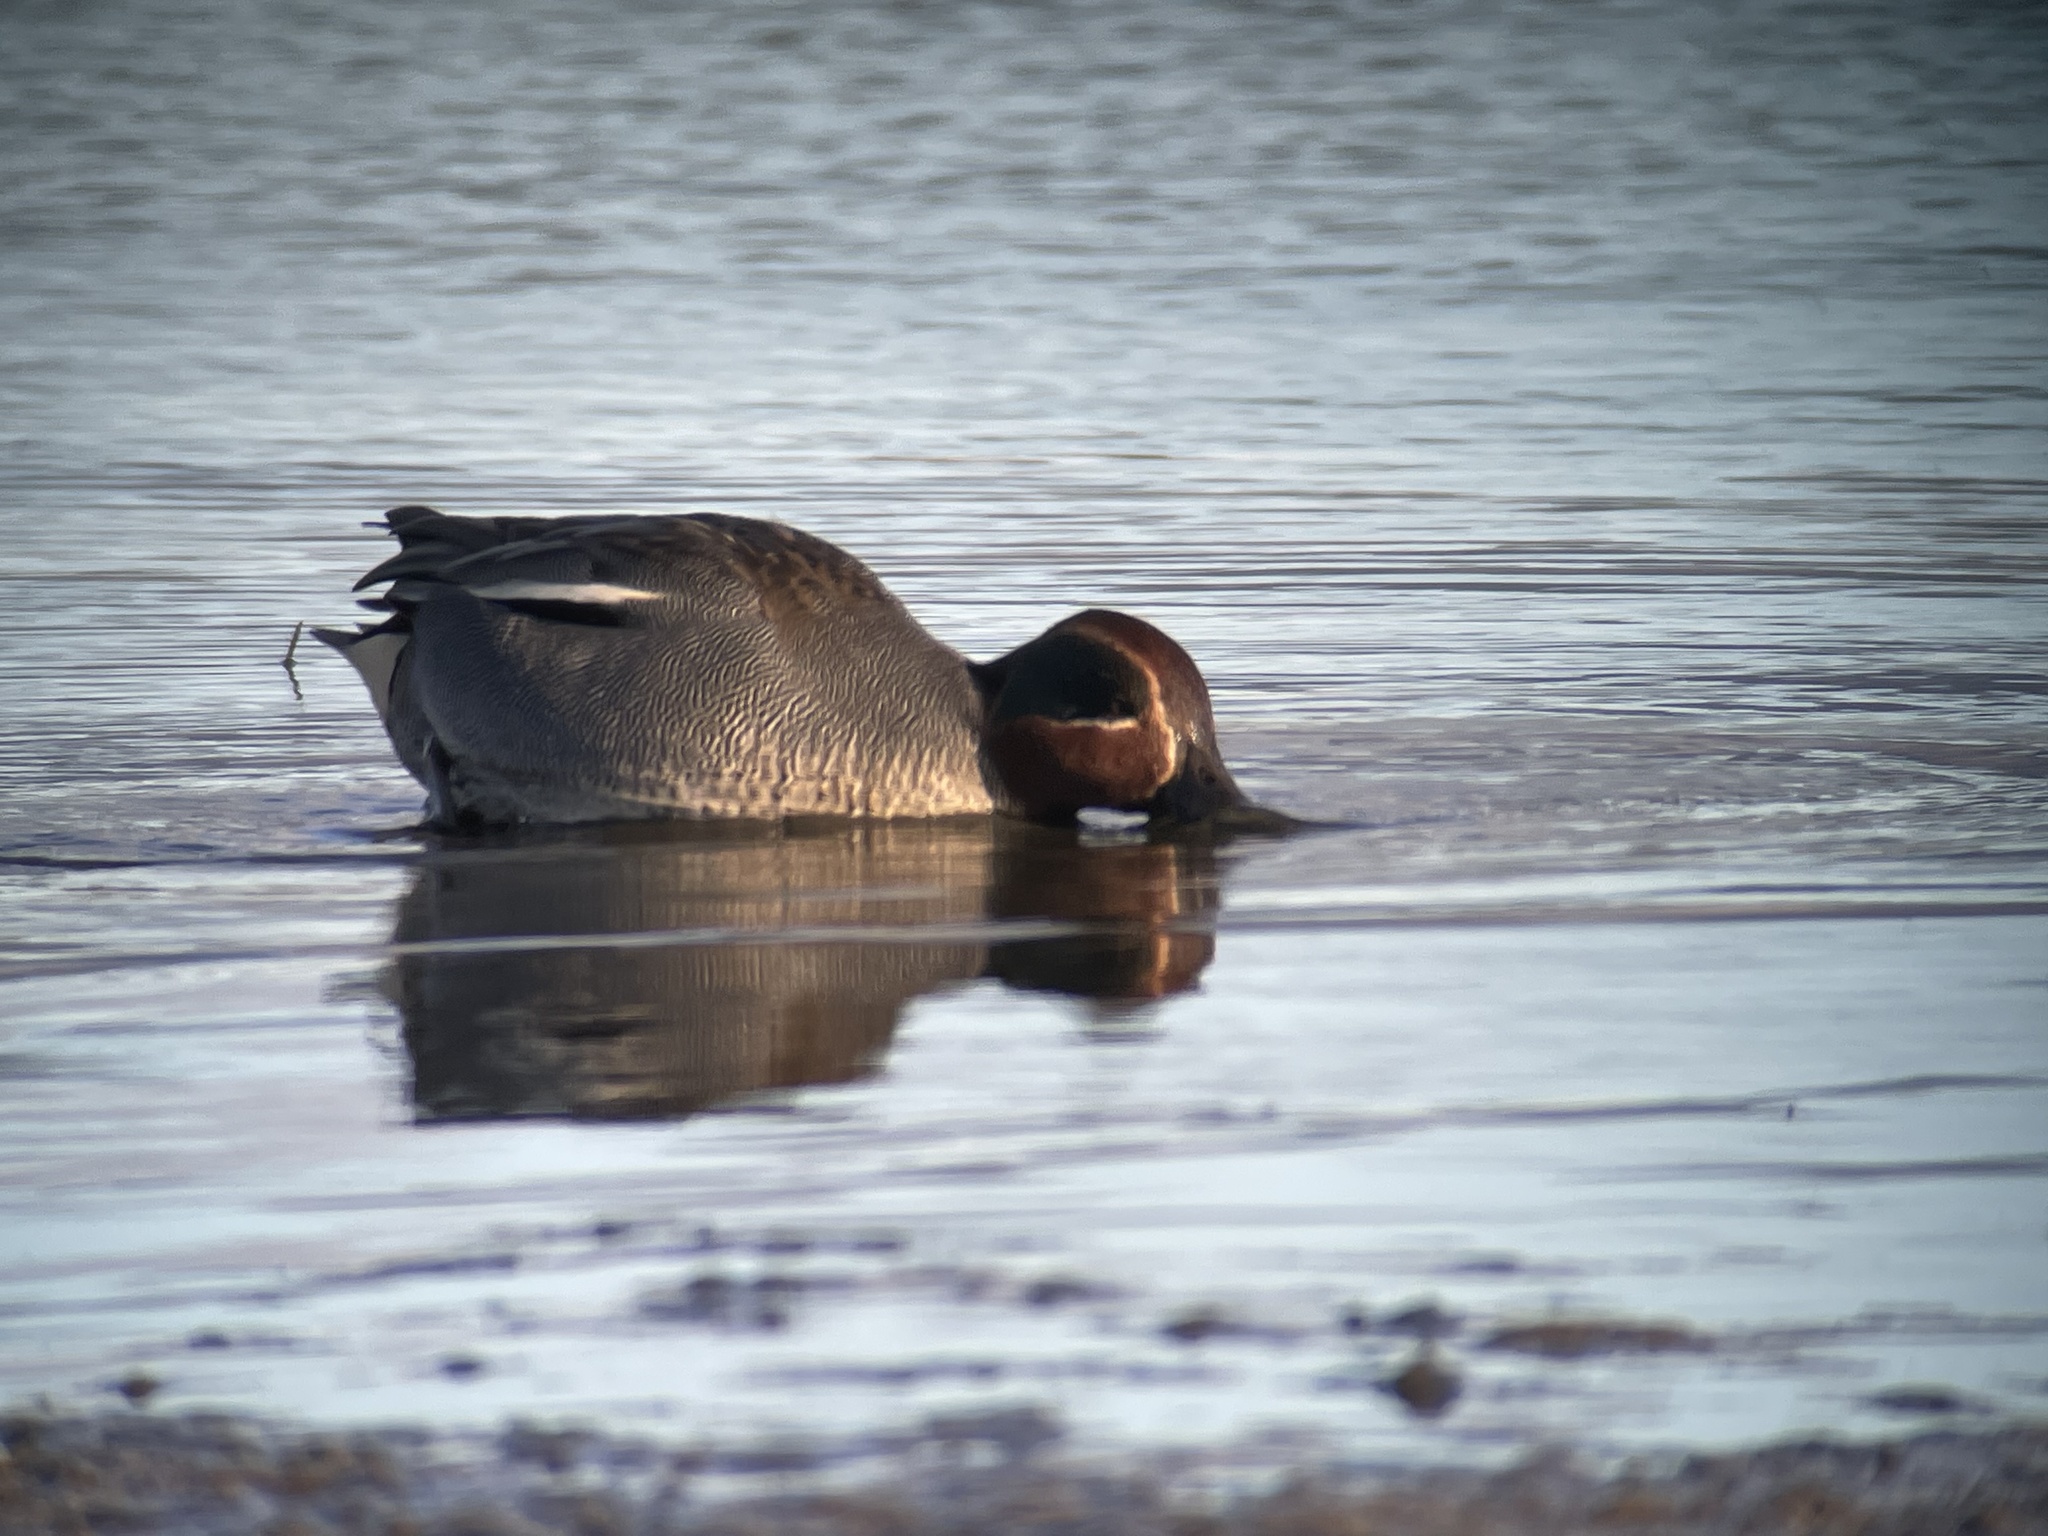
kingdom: Animalia
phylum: Chordata
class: Aves
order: Anseriformes
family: Anatidae
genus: Anas
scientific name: Anas crecca
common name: Eurasian teal
